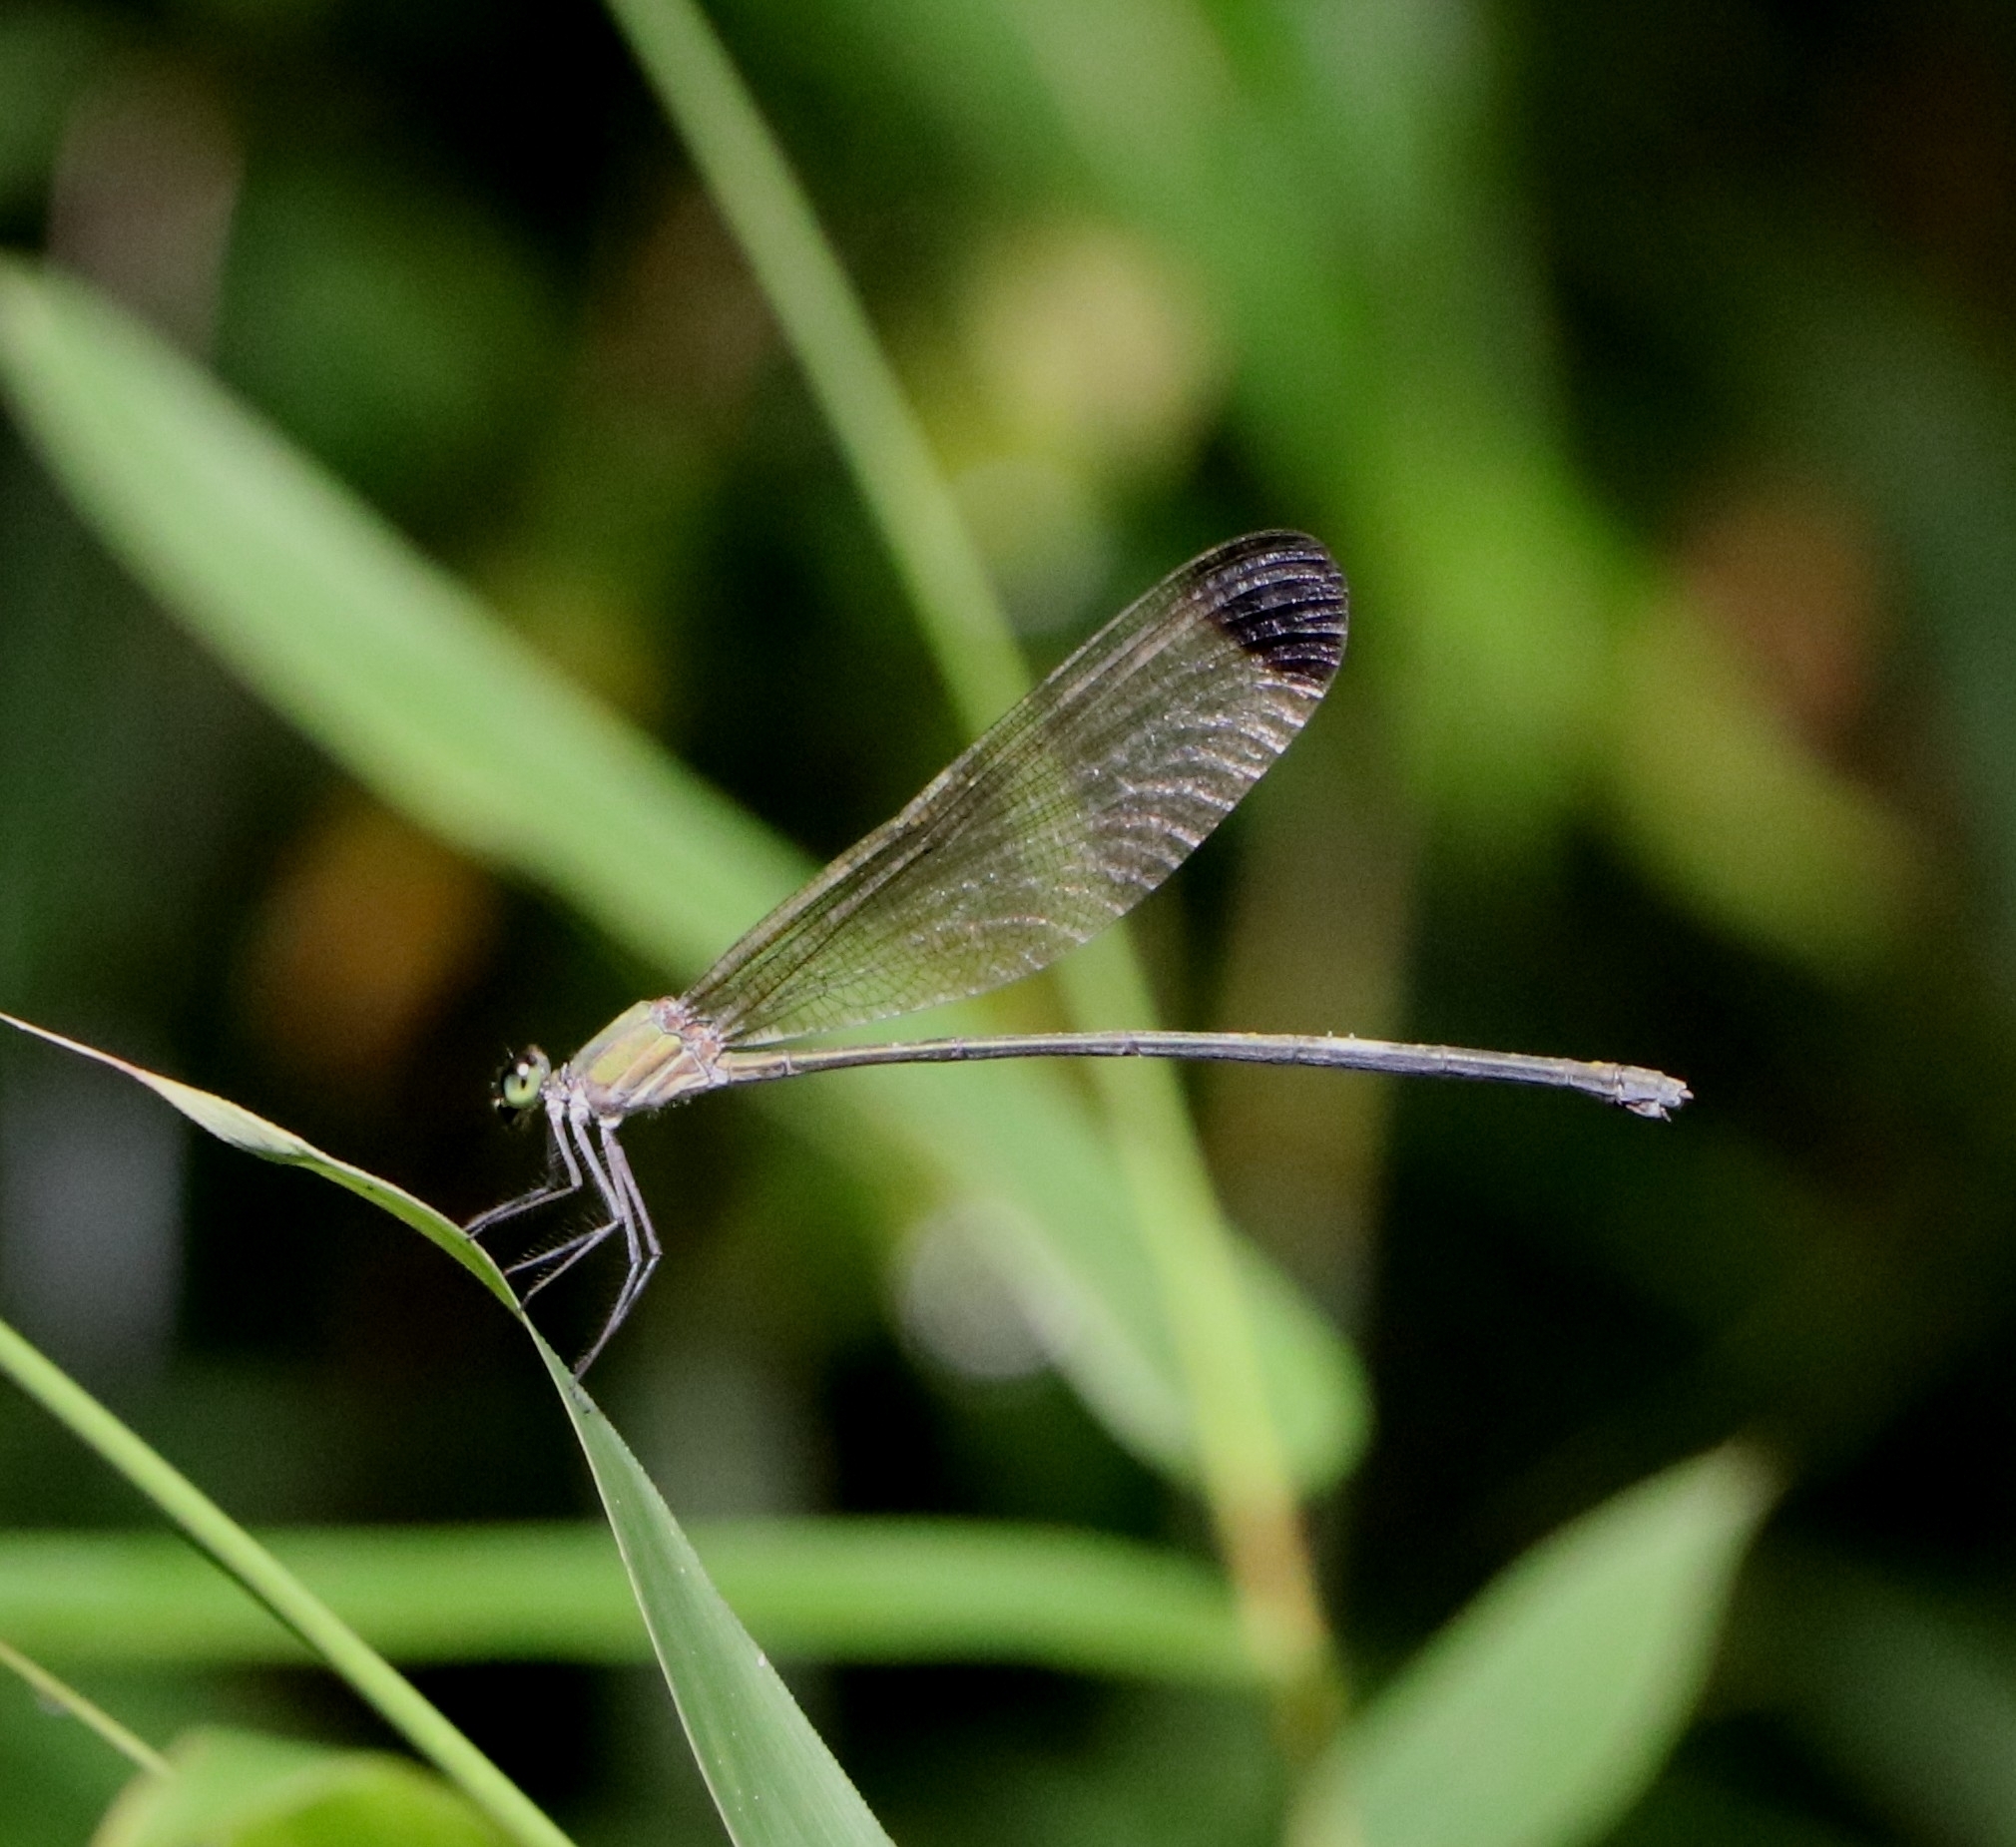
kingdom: Animalia
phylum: Arthropoda
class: Insecta
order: Odonata
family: Calopterygidae
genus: Vestalis
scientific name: Vestalis apicalis
